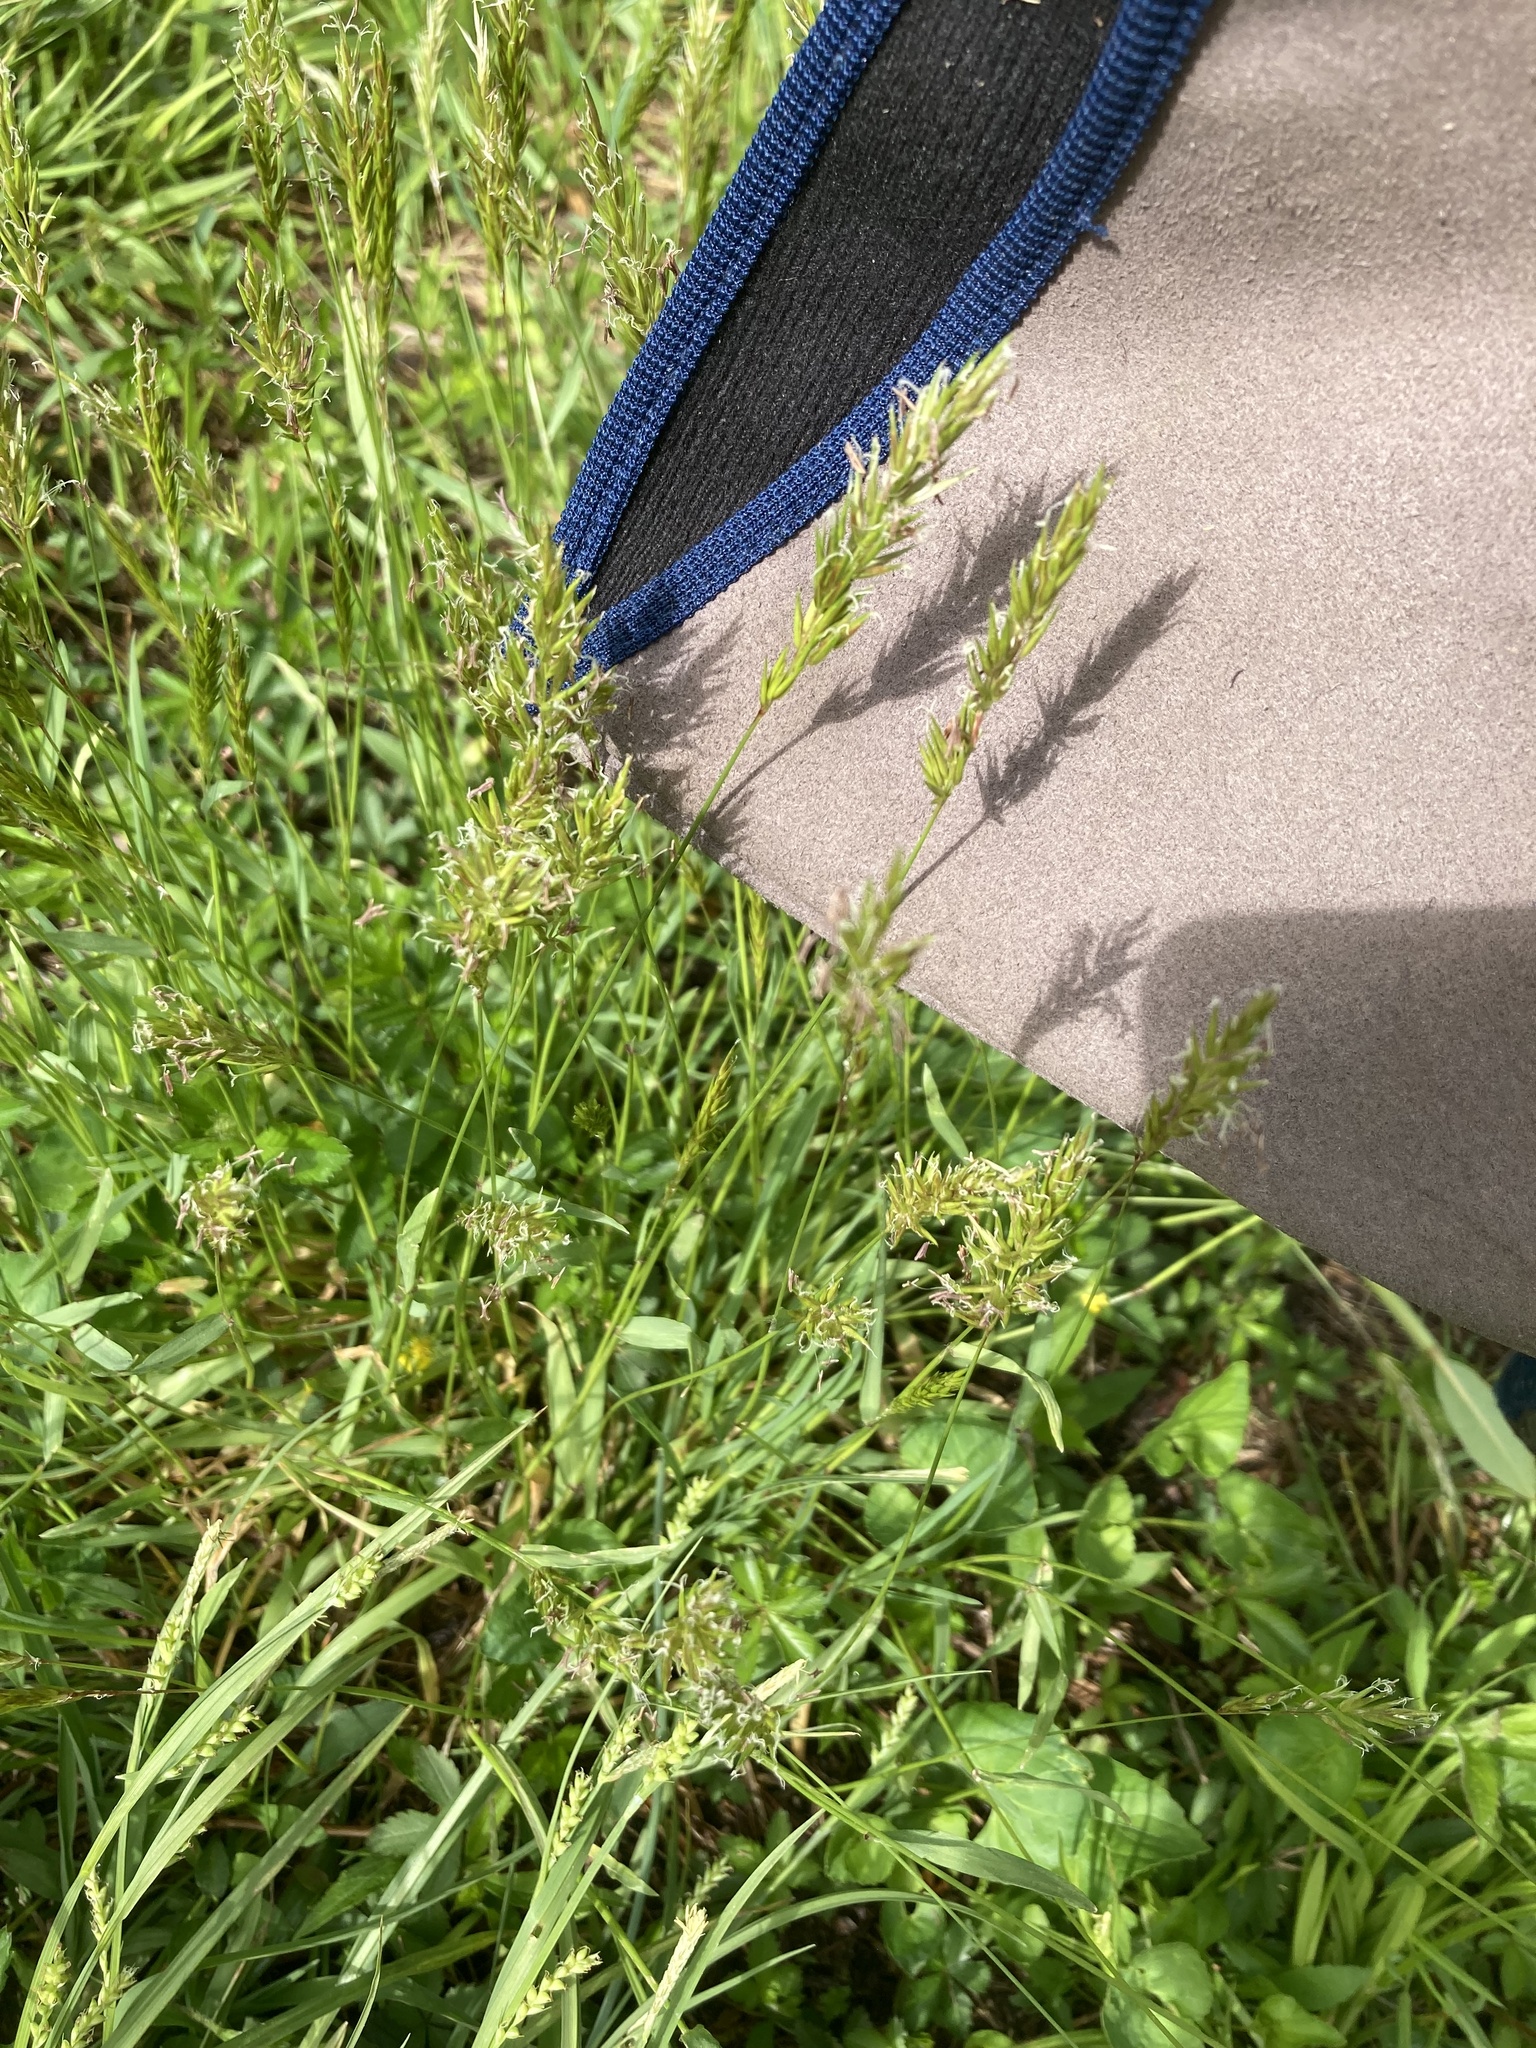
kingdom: Plantae
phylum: Tracheophyta
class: Liliopsida
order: Poales
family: Poaceae
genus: Anthoxanthum
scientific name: Anthoxanthum odoratum
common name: Sweet vernalgrass
